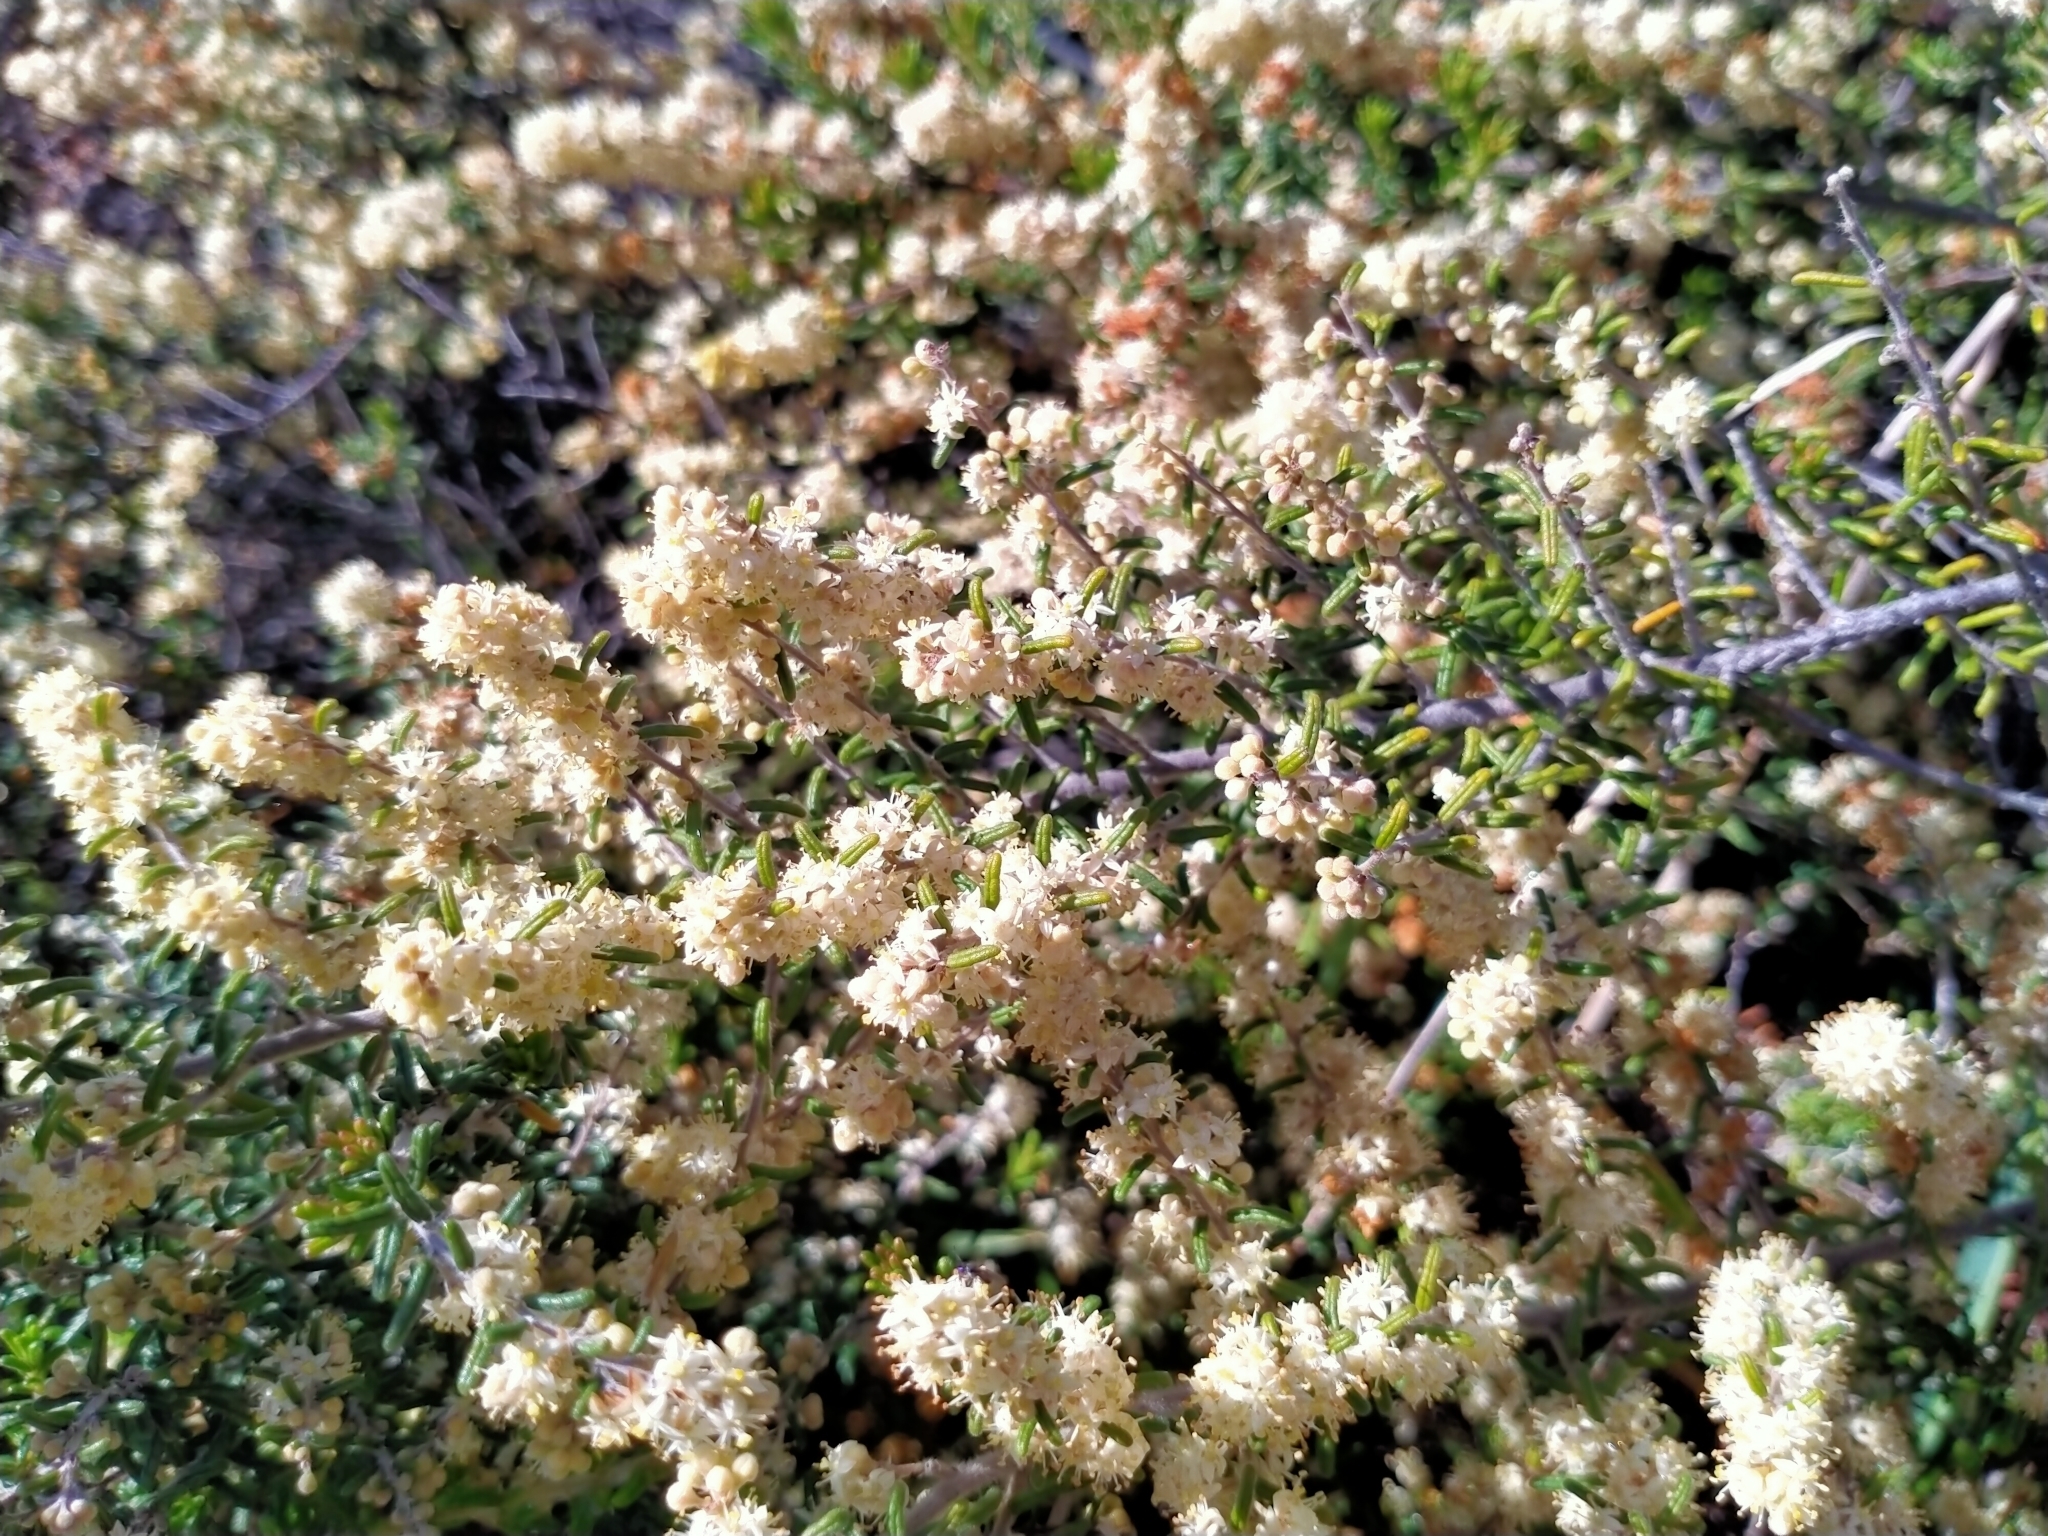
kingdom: Plantae
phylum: Tracheophyta
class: Magnoliopsida
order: Rosales
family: Rhamnaceae
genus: Pomaderris
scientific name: Pomaderris amoena
